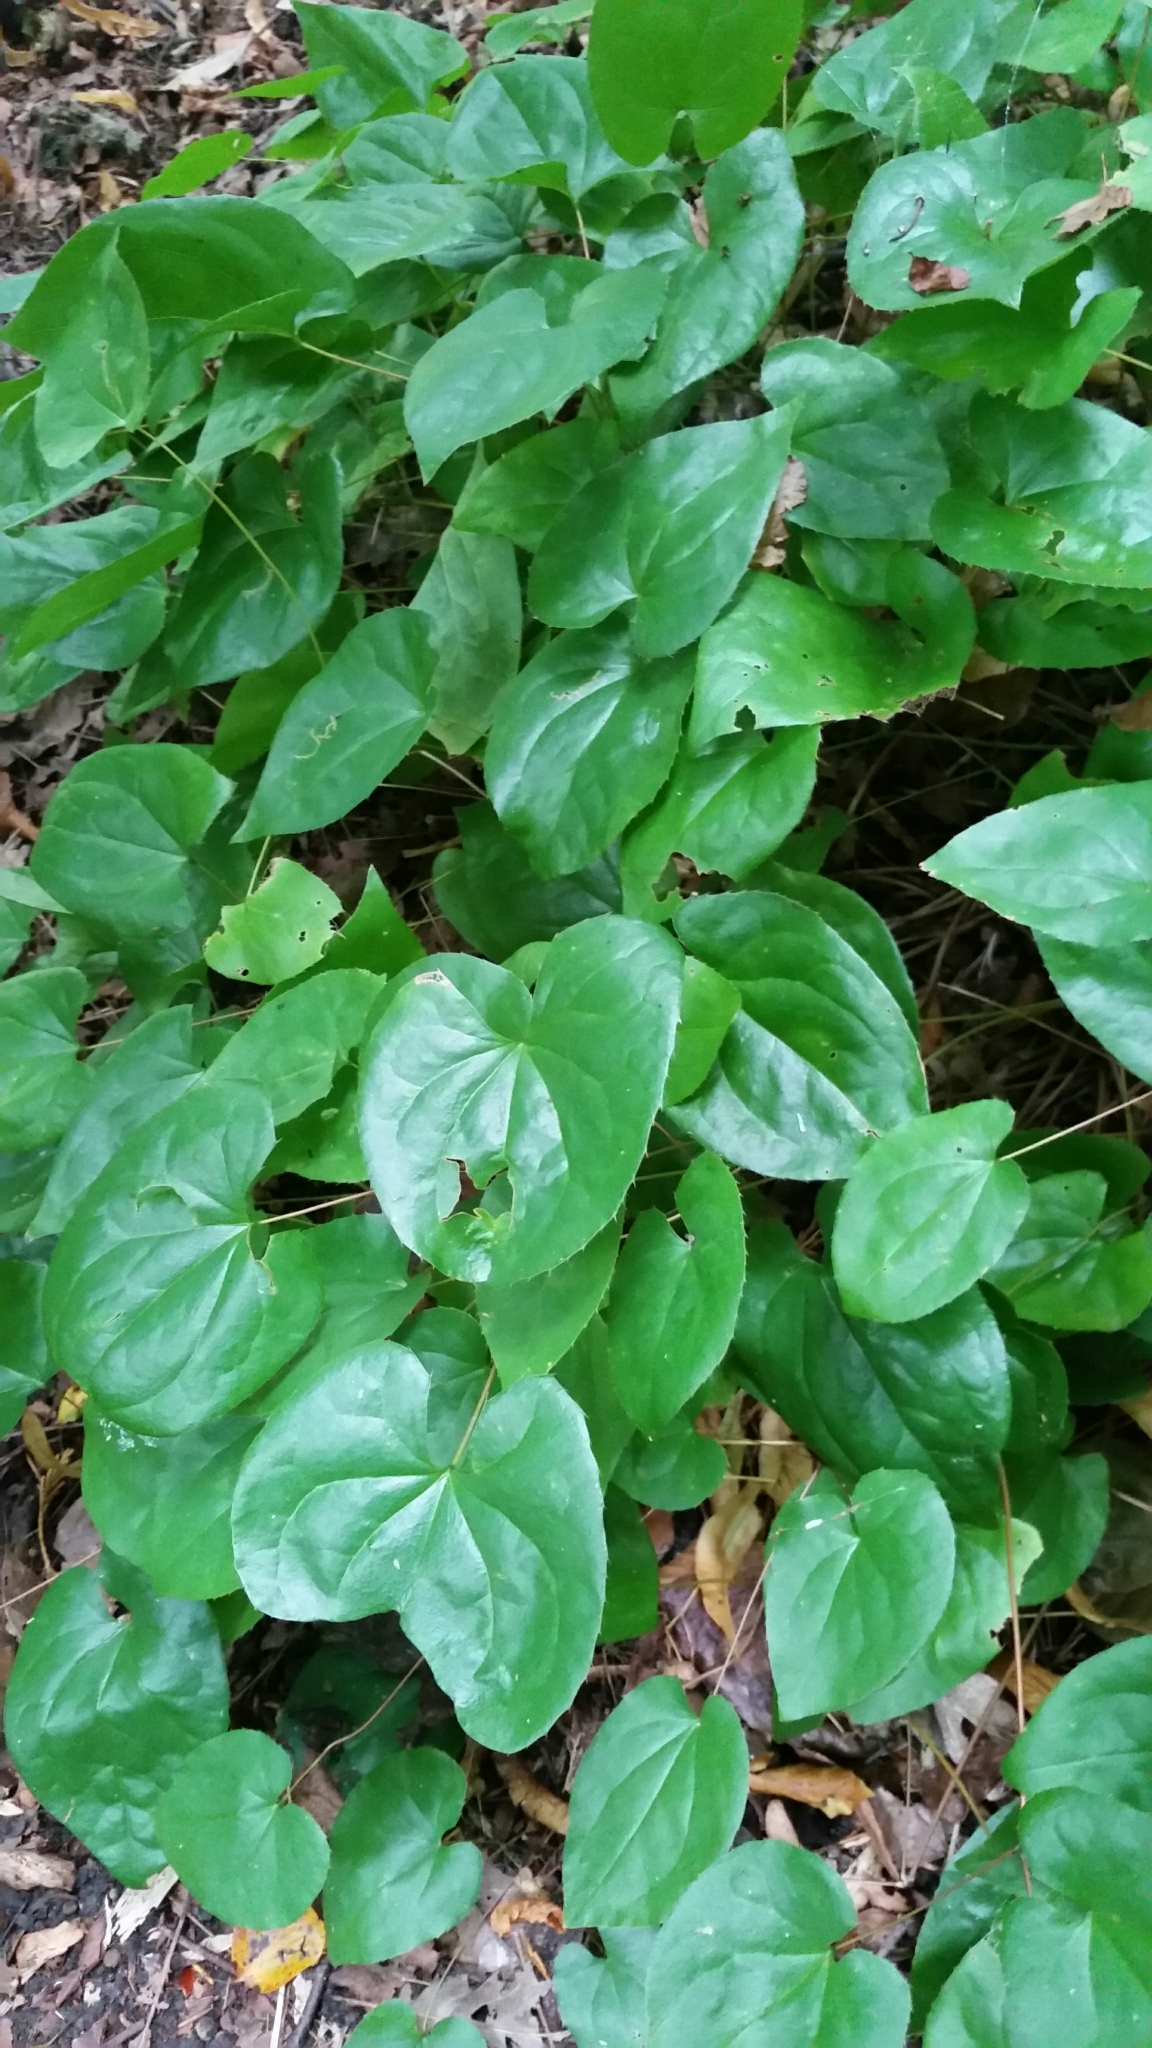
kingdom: Plantae
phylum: Tracheophyta
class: Magnoliopsida
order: Ranunculales
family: Berberidaceae
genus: Epimedium
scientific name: Epimedium versicolor
